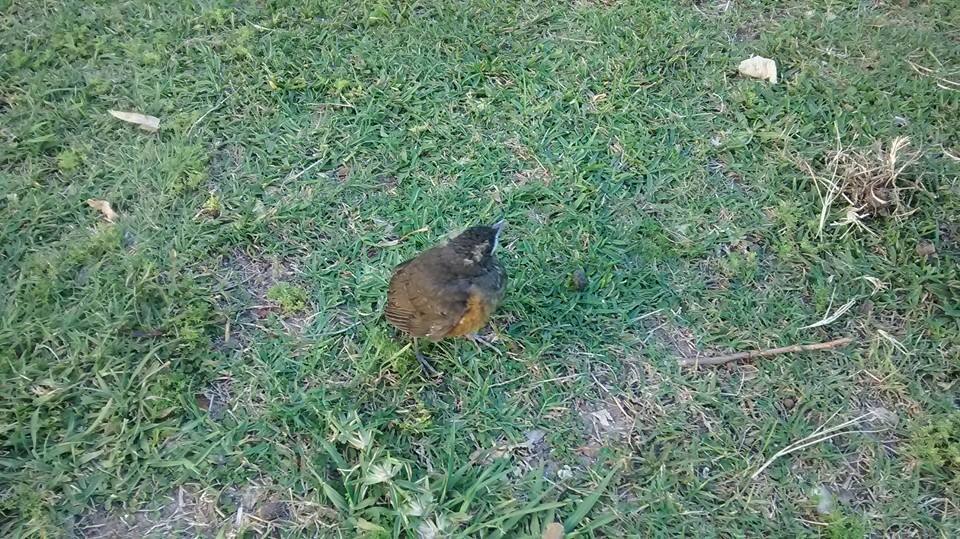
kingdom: Animalia
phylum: Chordata
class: Aves
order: Passeriformes
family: Turdidae
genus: Turdus
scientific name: Turdus rufiventris
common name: Rufous-bellied thrush
